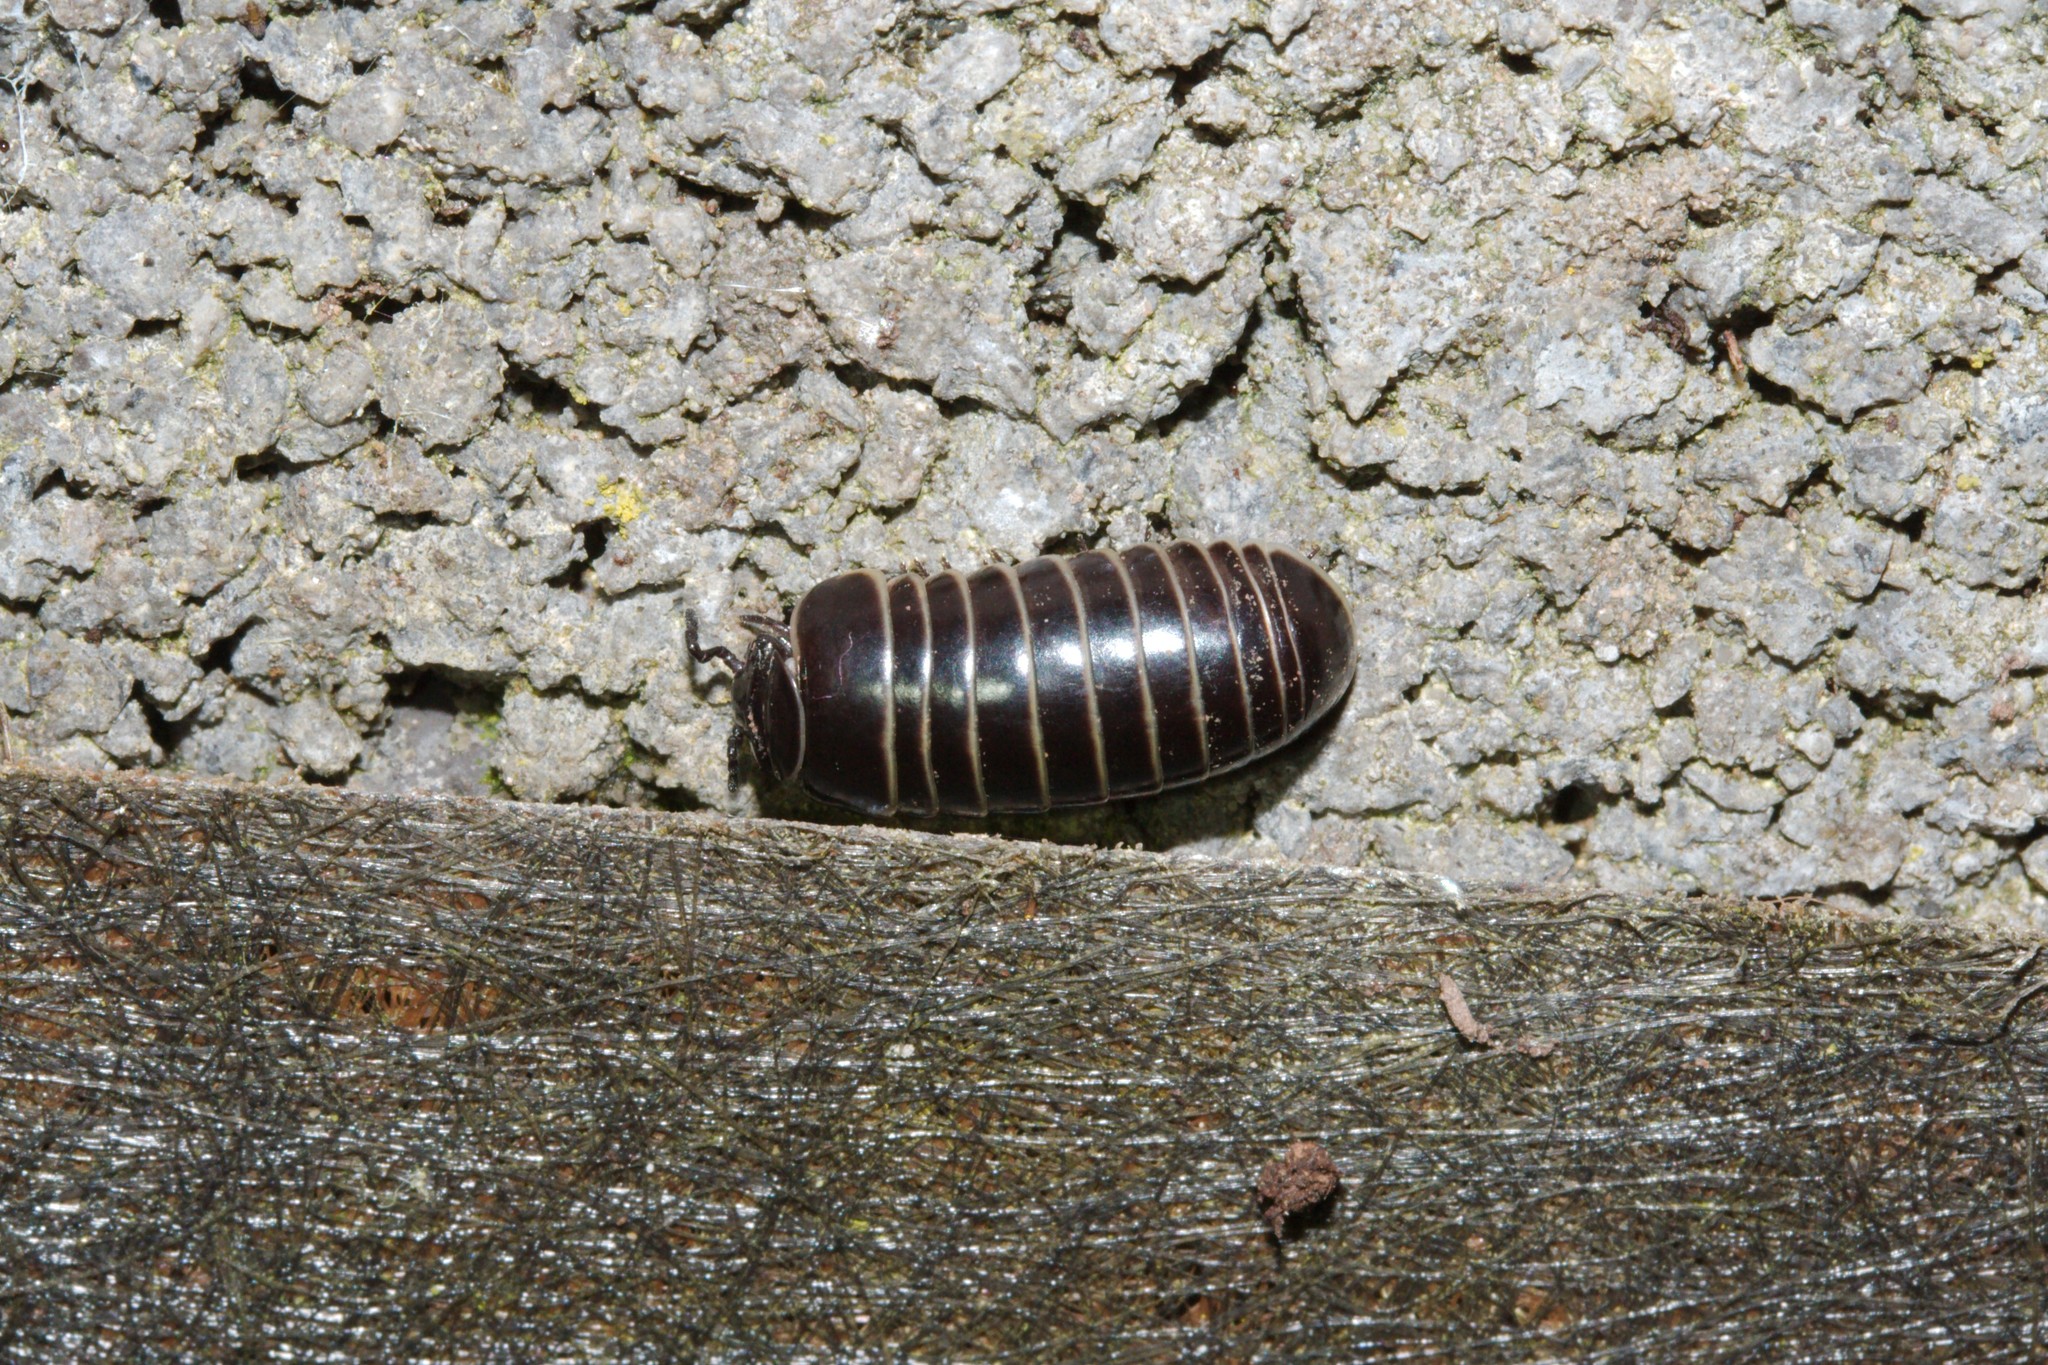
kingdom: Animalia
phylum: Arthropoda
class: Diplopoda
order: Glomerida
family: Glomeridae
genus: Glomeris
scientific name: Glomeris marginata
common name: Bordered pill millipede
